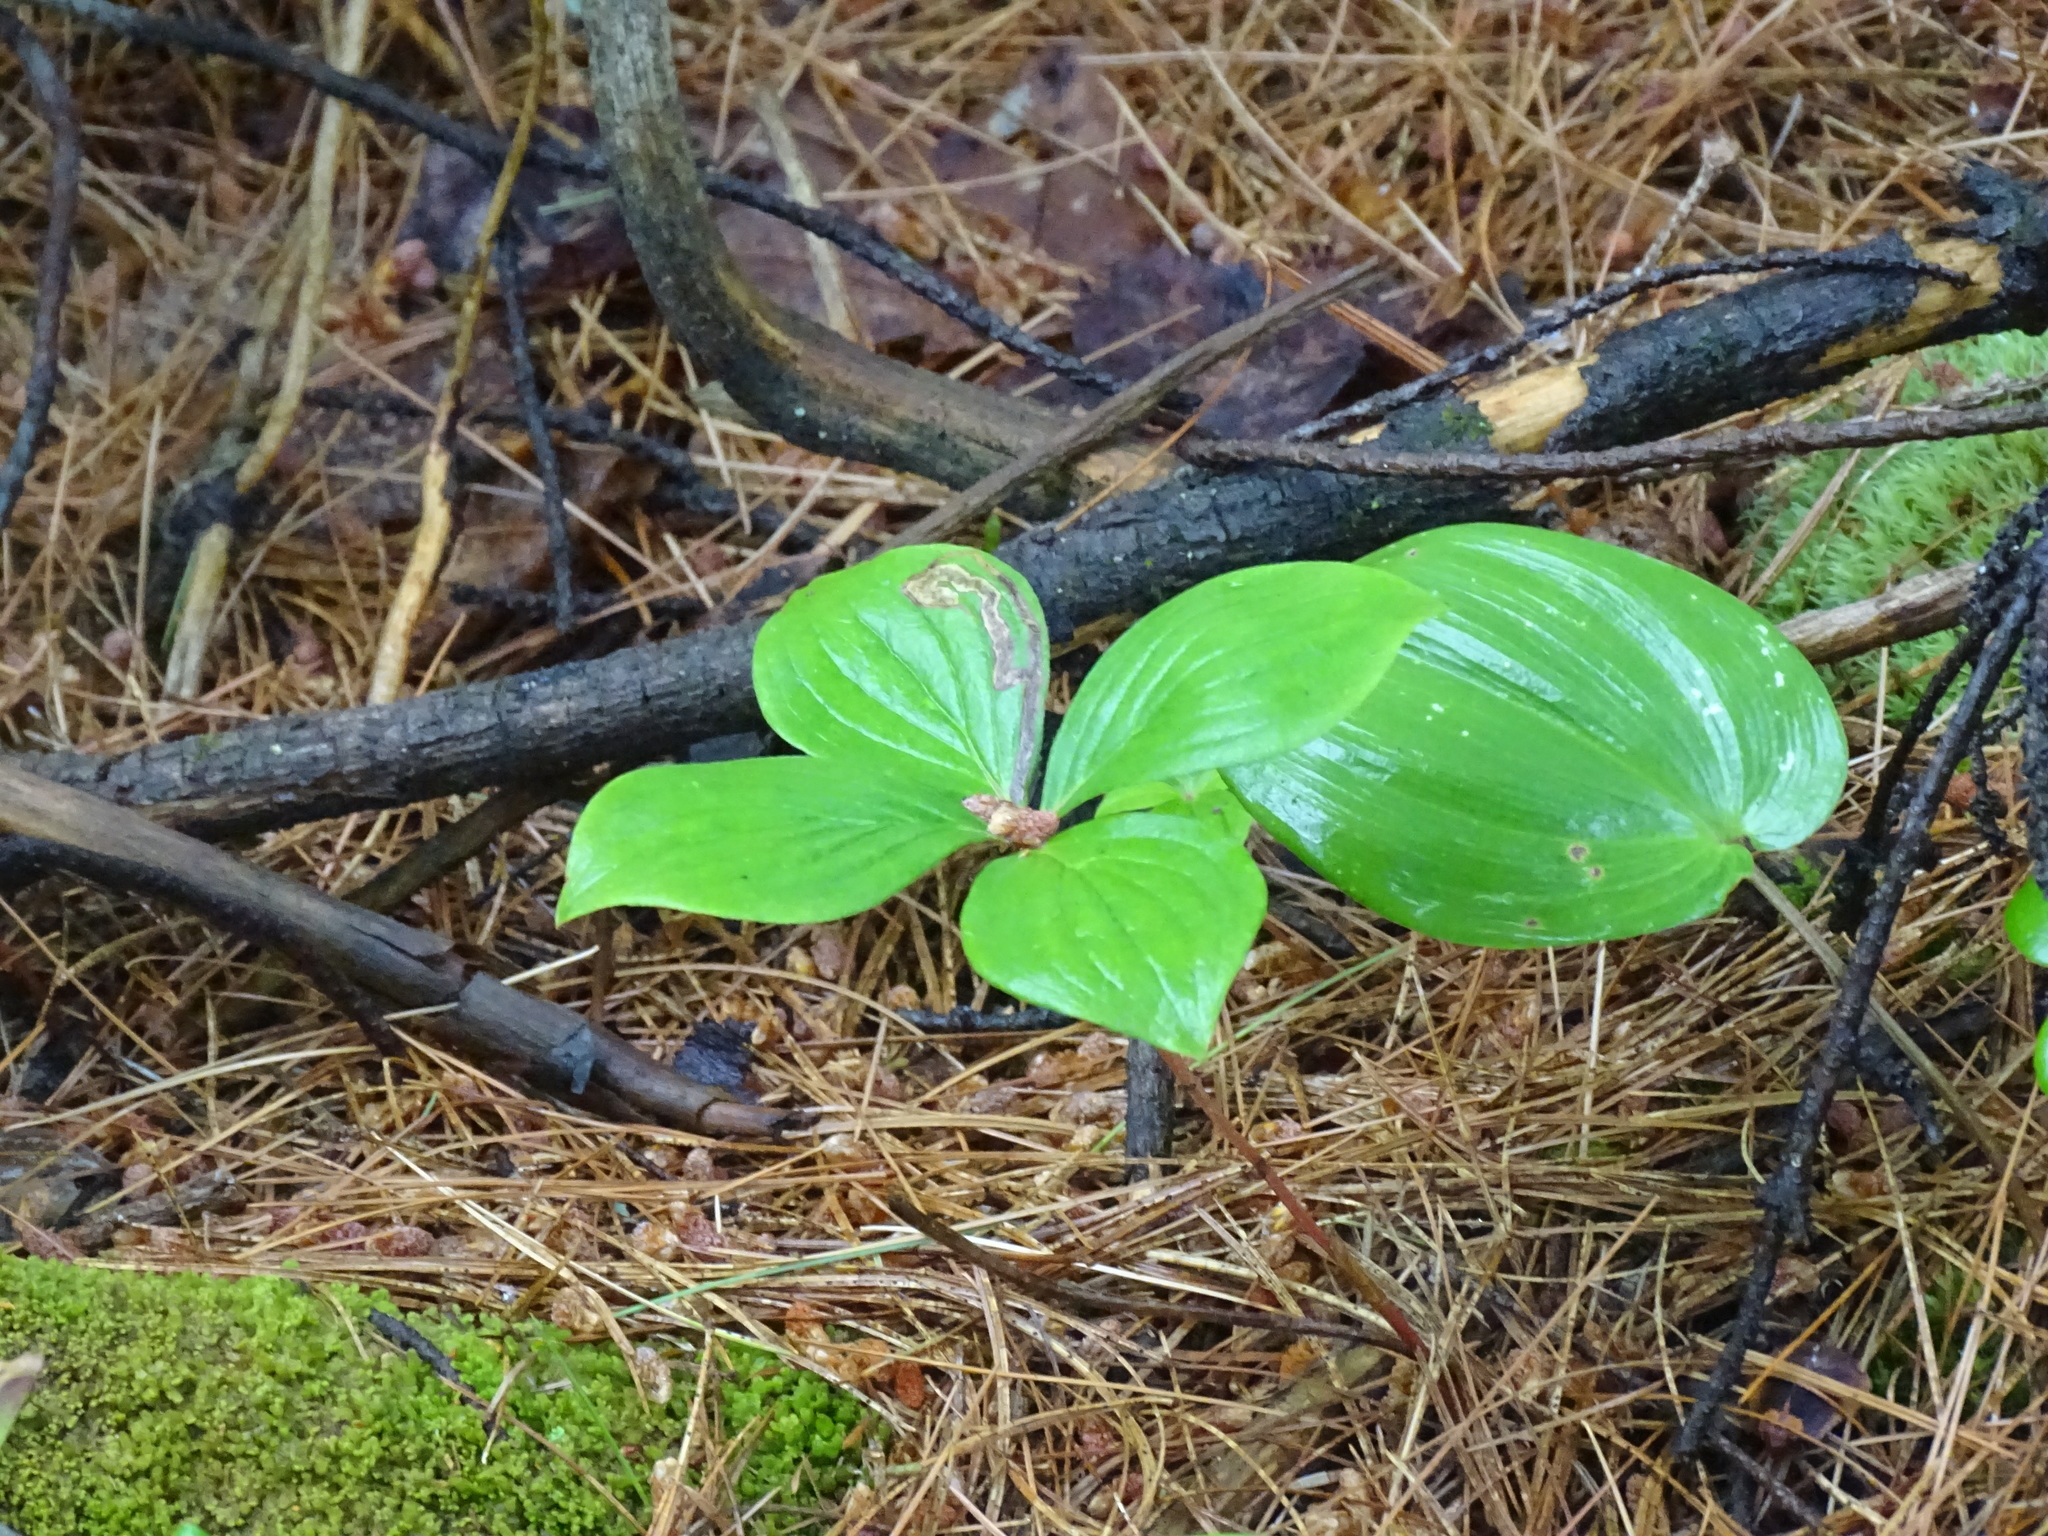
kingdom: Plantae
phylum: Tracheophyta
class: Magnoliopsida
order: Cornales
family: Cornaceae
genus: Cornus
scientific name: Cornus canadensis
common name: Creeping dogwood
